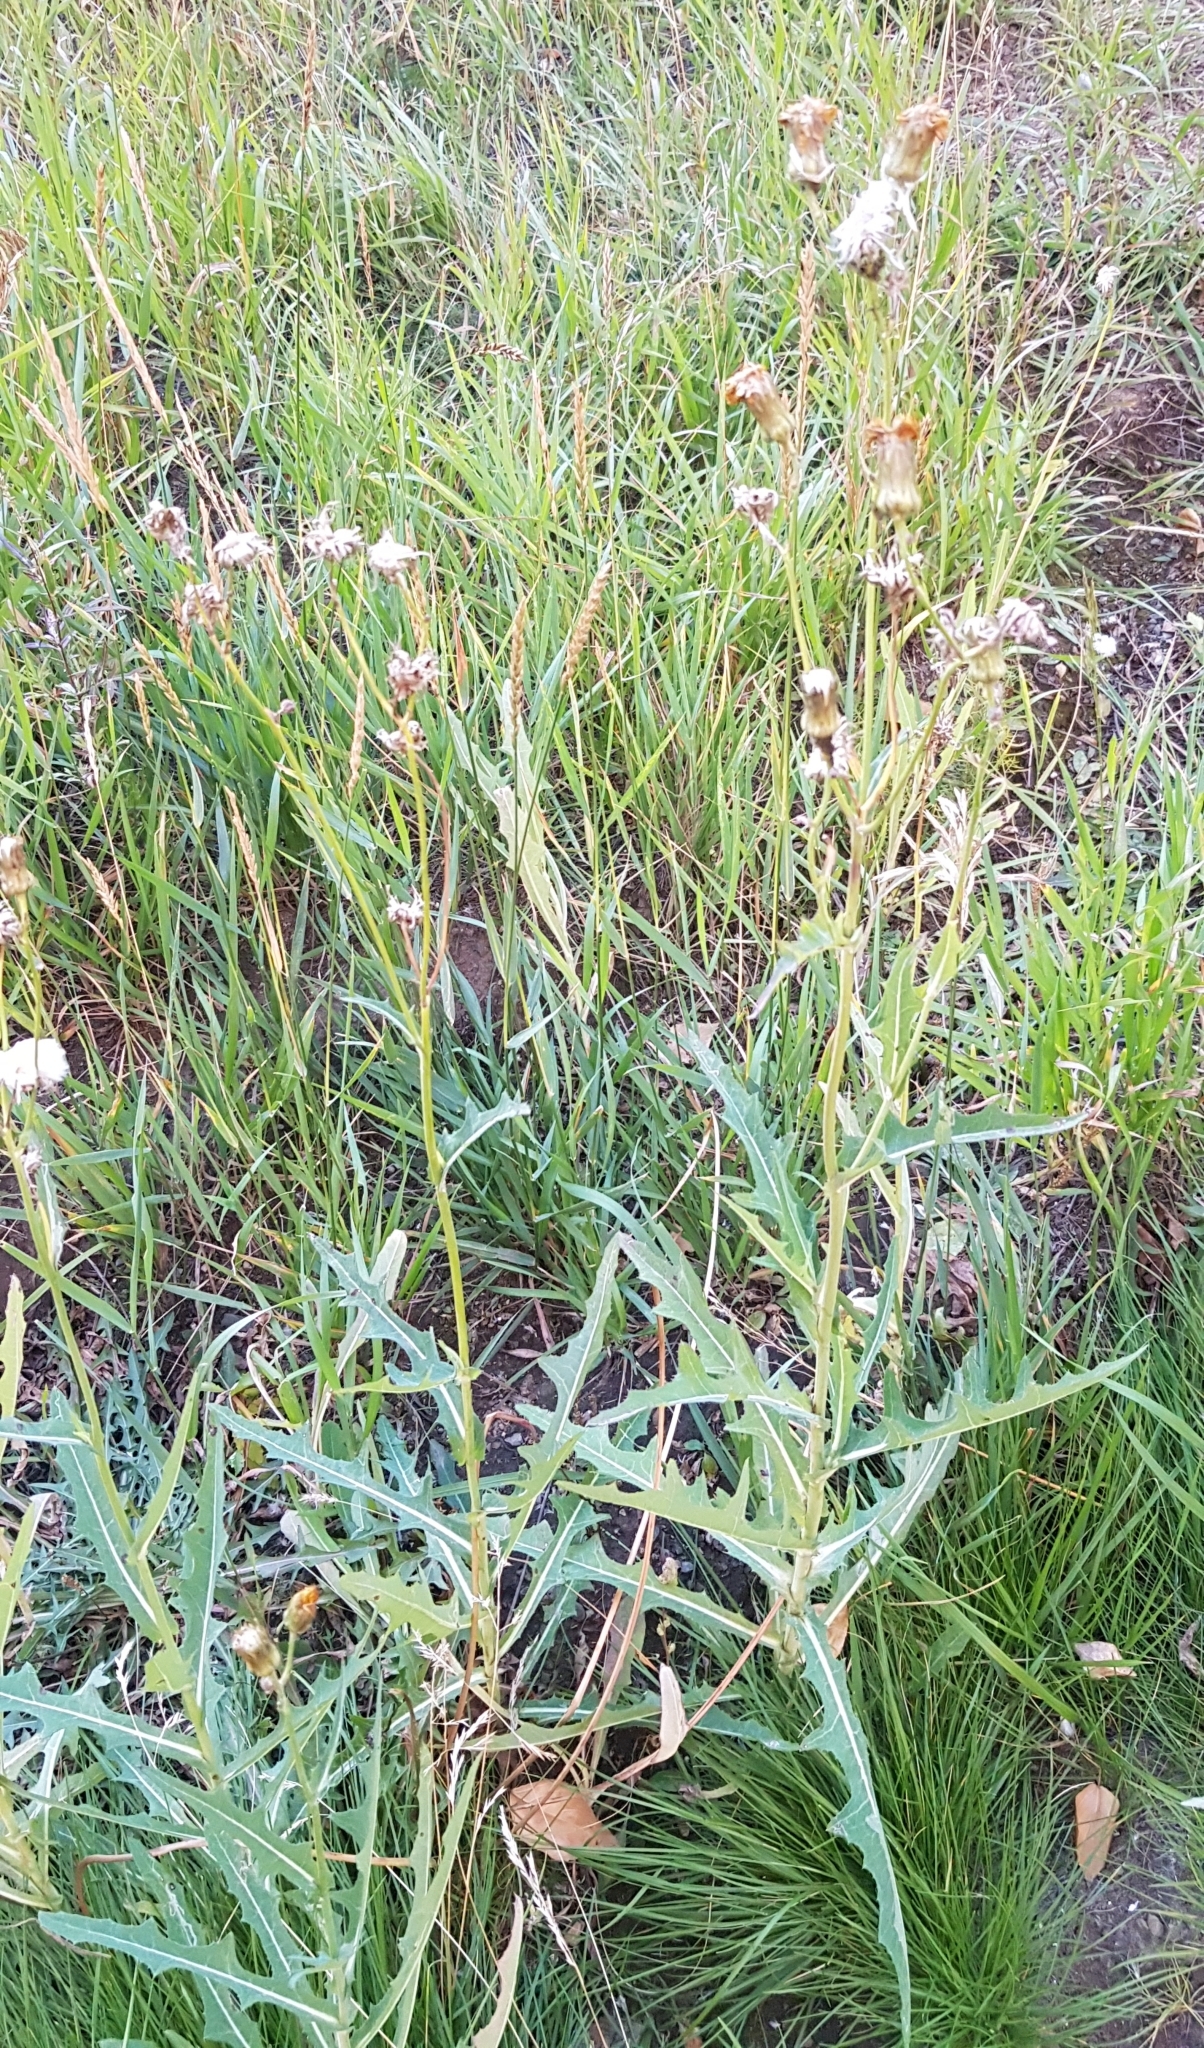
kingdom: Plantae
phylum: Tracheophyta
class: Magnoliopsida
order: Asterales
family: Asteraceae
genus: Sonchus
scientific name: Sonchus arvensis
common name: Perennial sow-thistle
